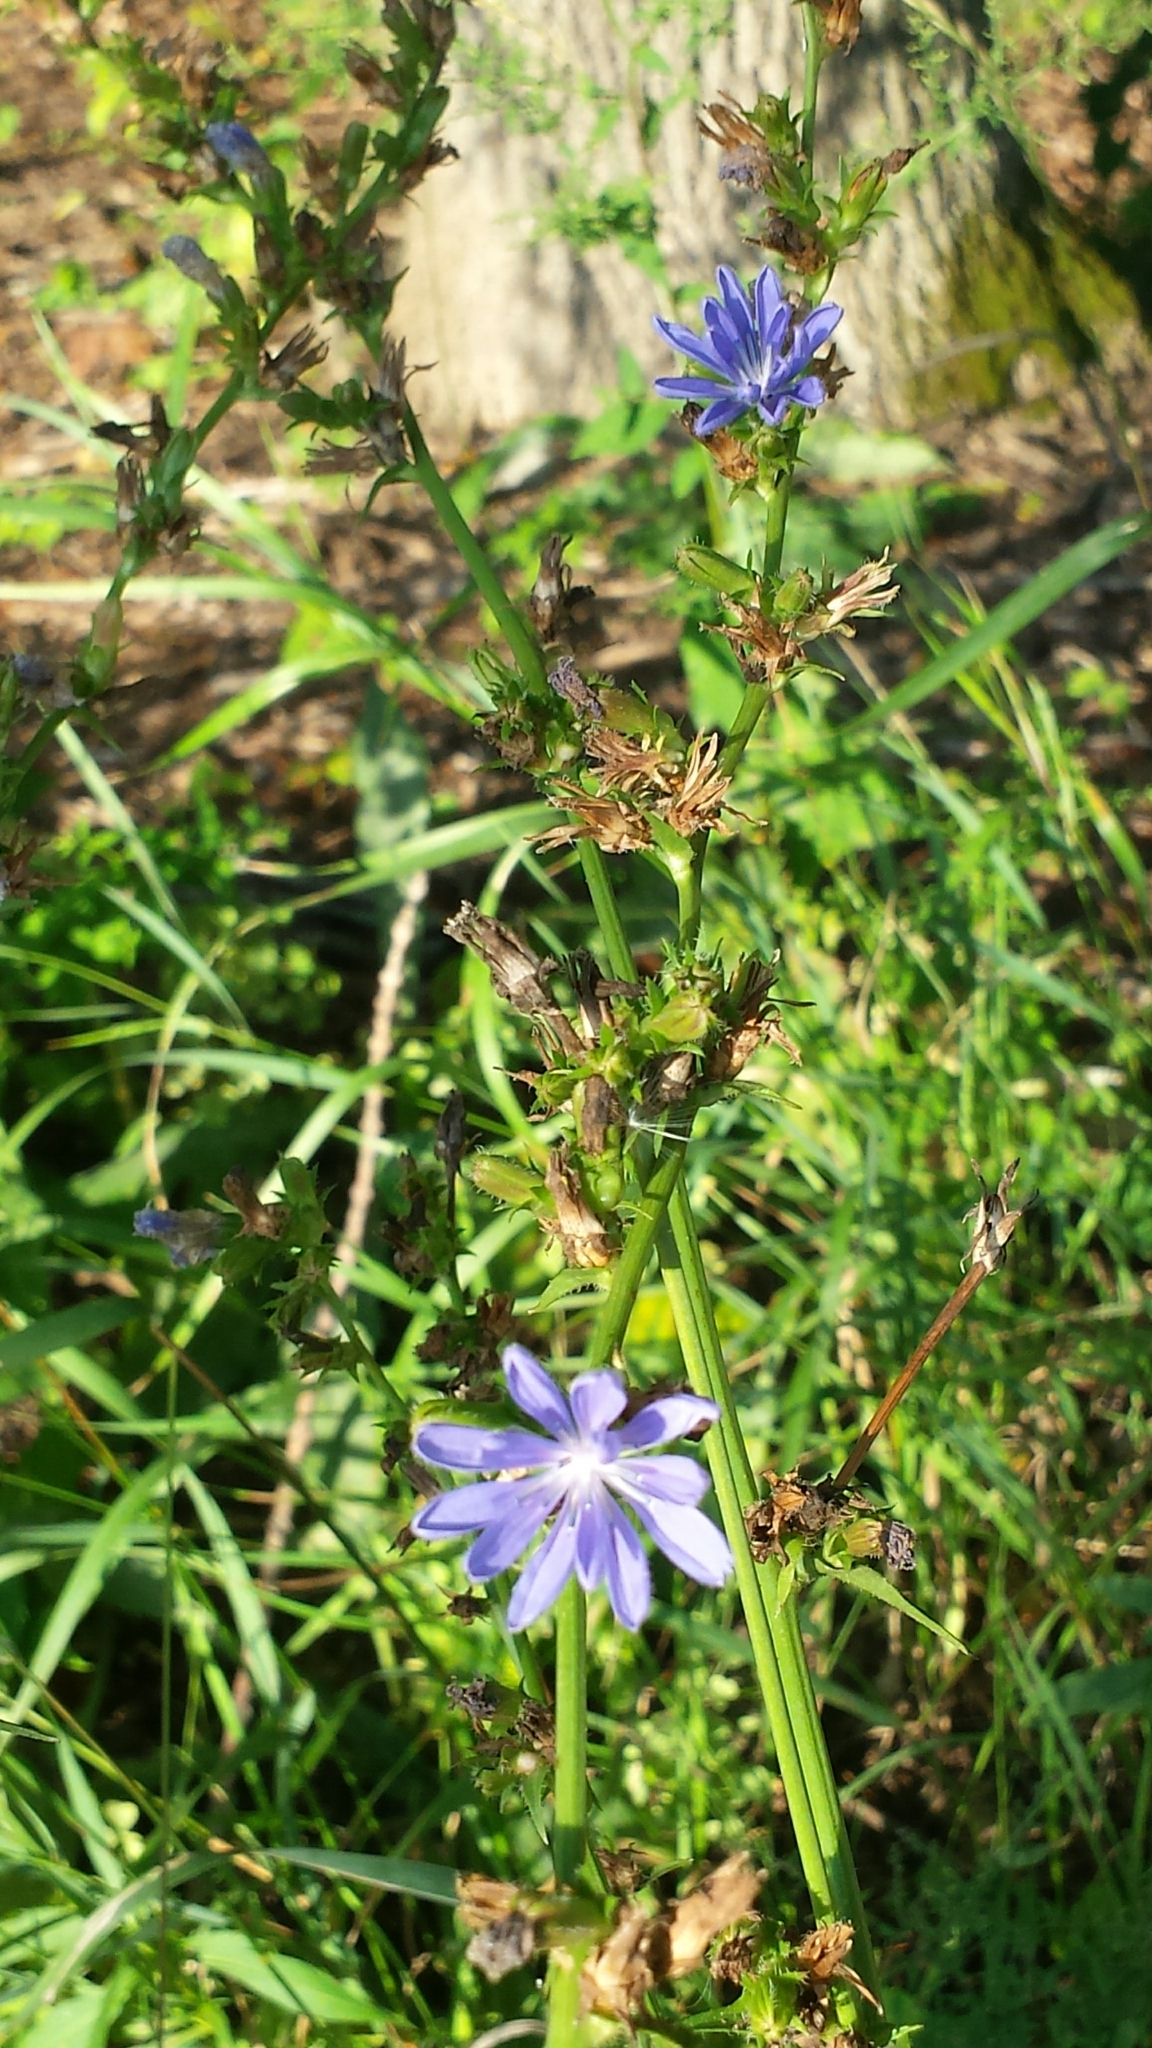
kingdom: Plantae
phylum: Tracheophyta
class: Magnoliopsida
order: Asterales
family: Asteraceae
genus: Cichorium
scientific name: Cichorium intybus
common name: Chicory
